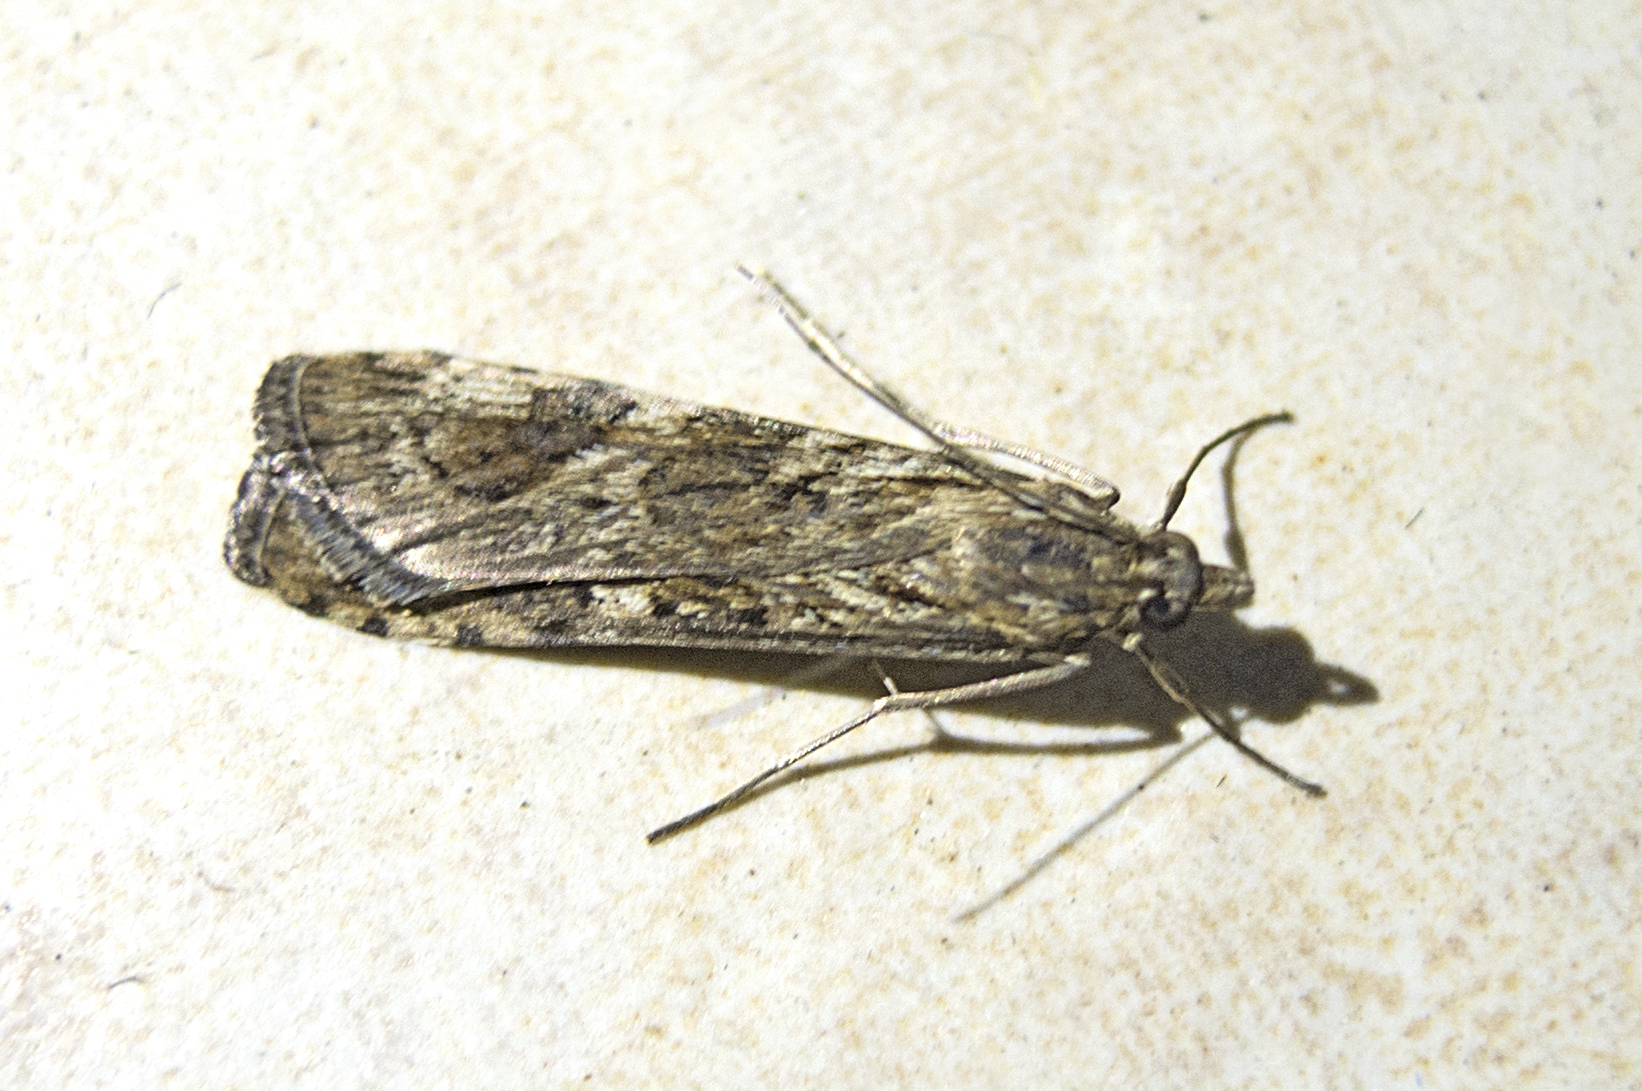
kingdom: Animalia
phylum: Arthropoda
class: Insecta
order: Lepidoptera
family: Crambidae
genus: Nomophila
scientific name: Nomophila noctuella
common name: Rush veneer
